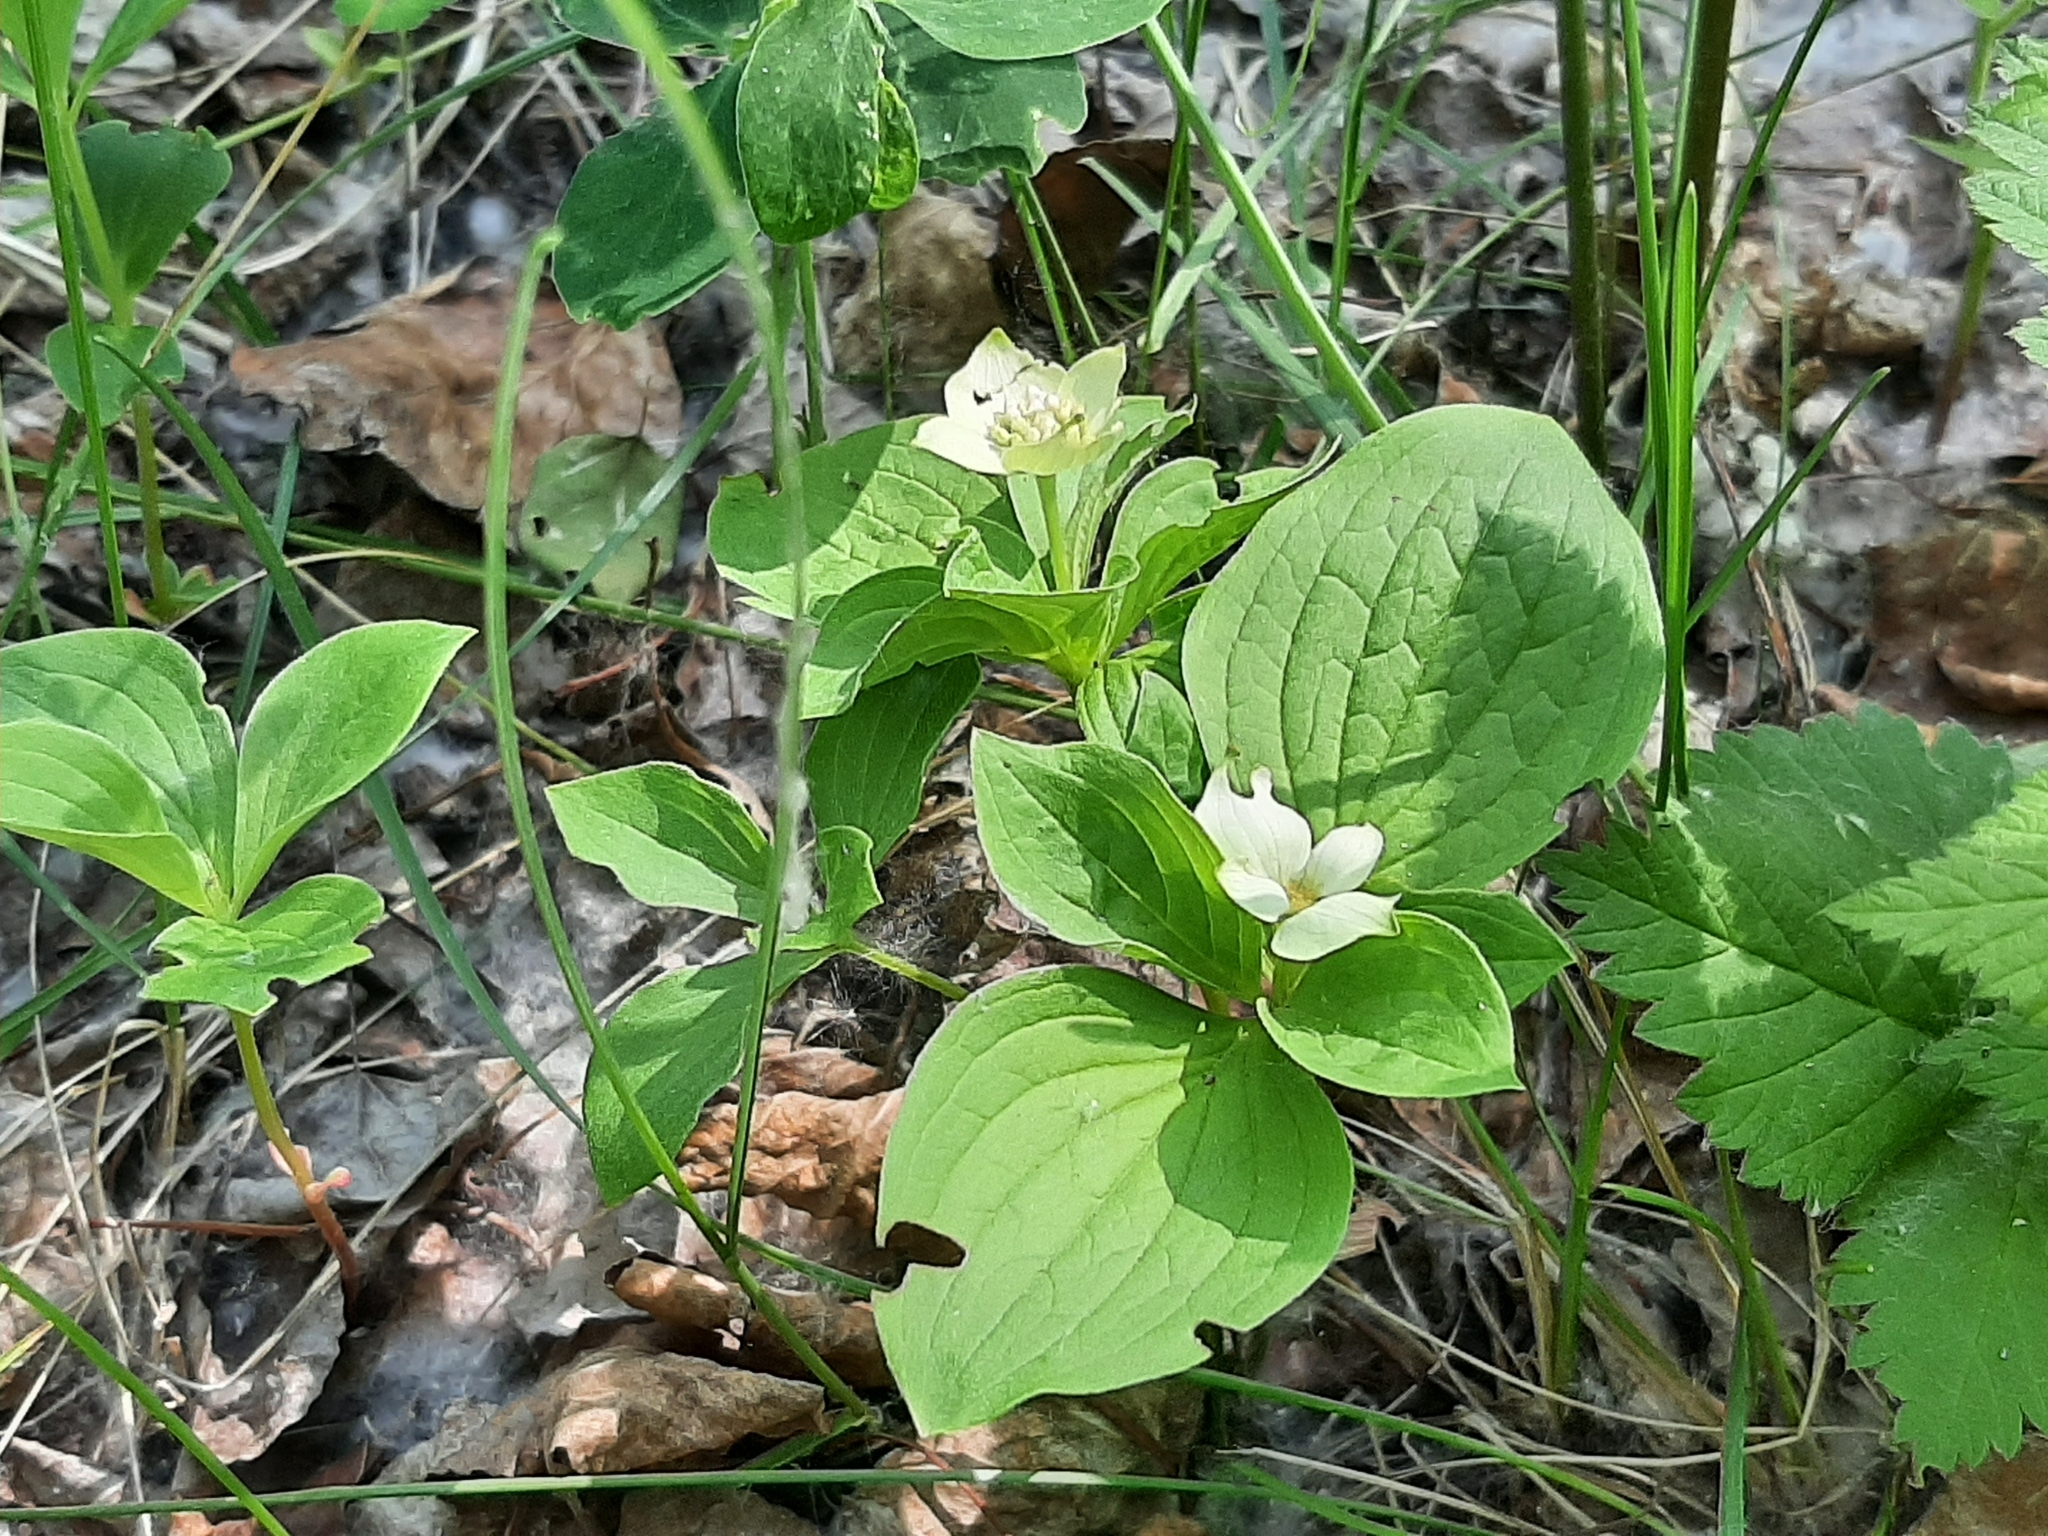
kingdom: Plantae
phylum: Tracheophyta
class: Magnoliopsida
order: Cornales
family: Cornaceae
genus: Cornus
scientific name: Cornus canadensis
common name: Creeping dogwood
